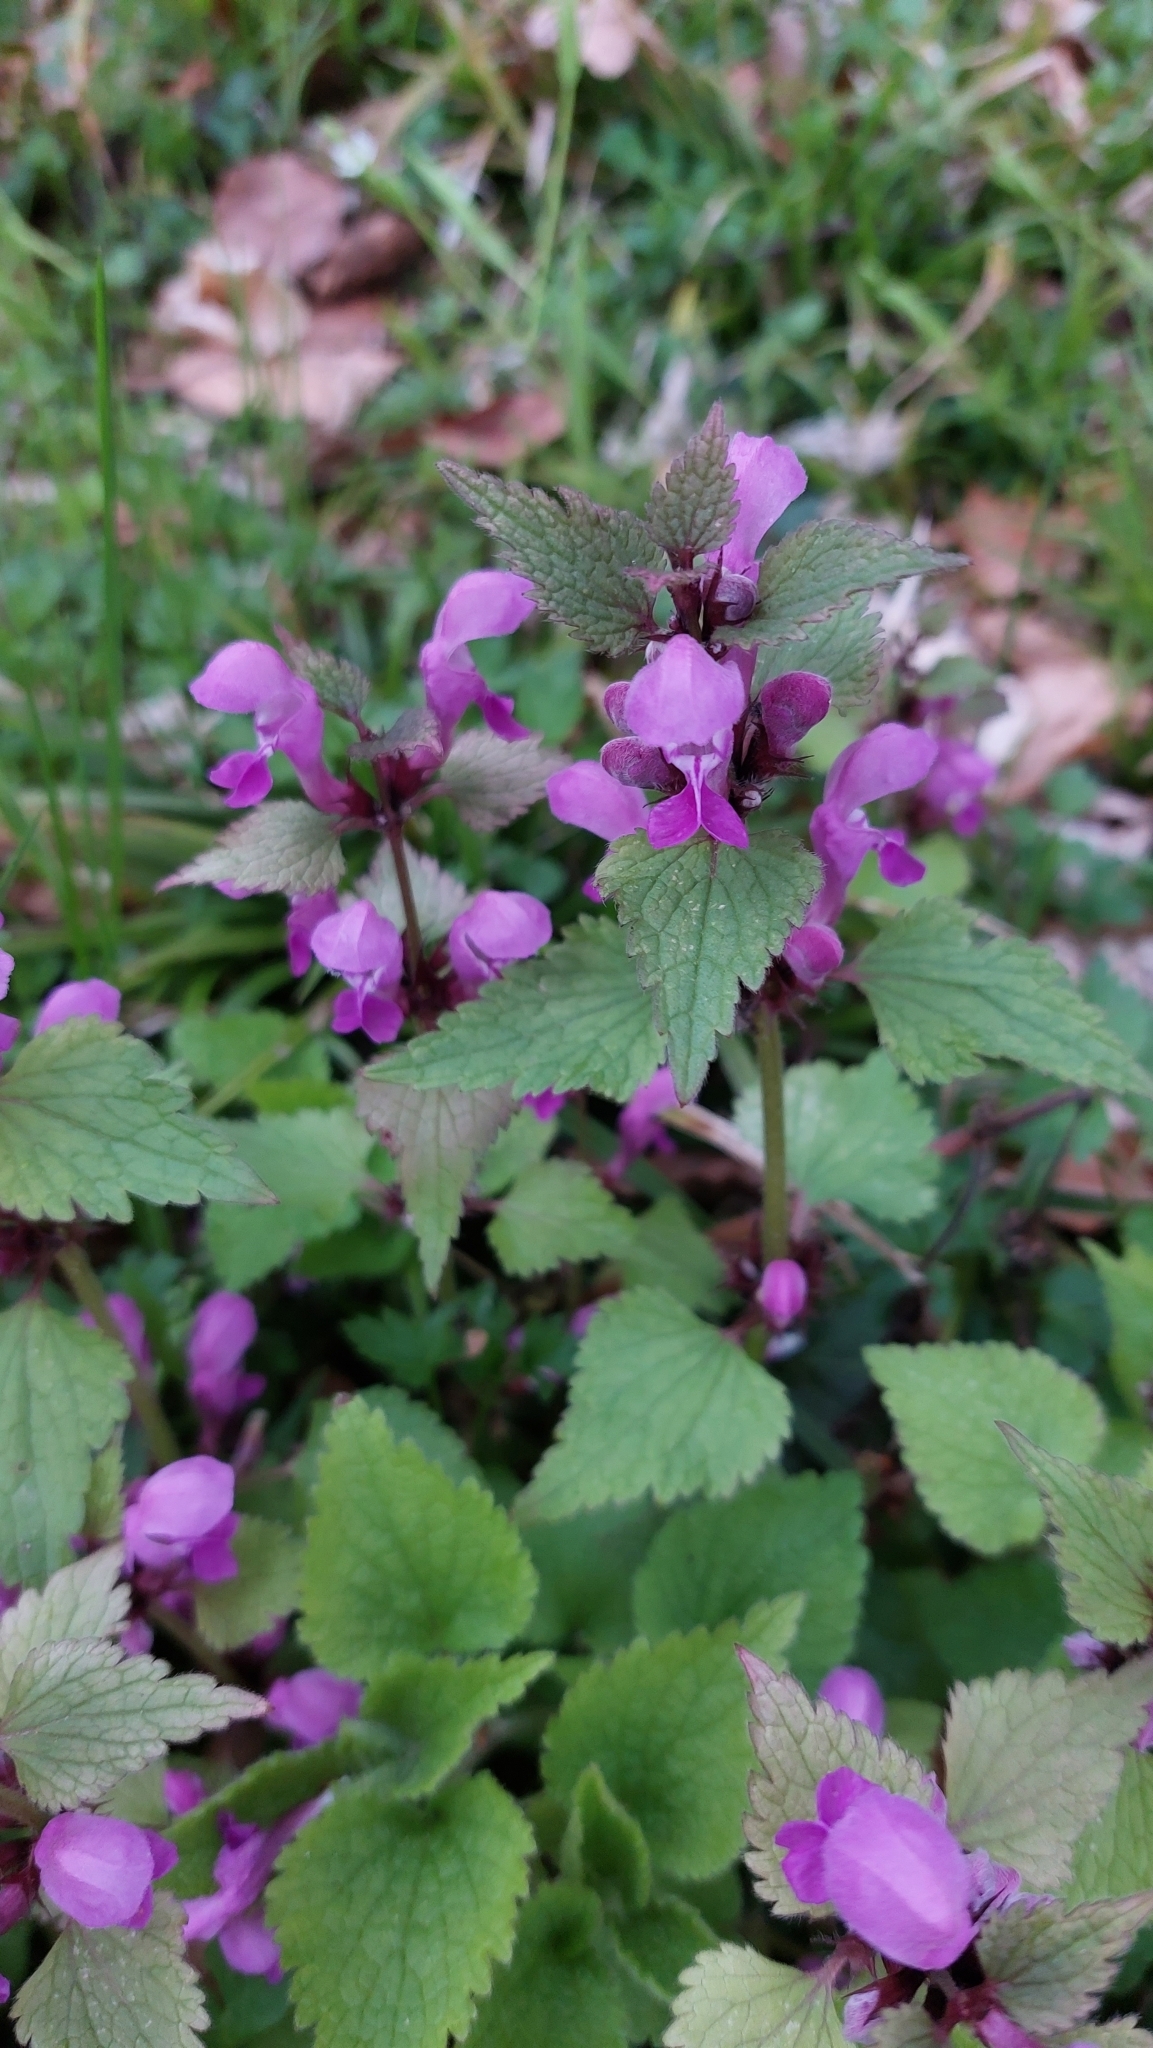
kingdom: Plantae
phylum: Tracheophyta
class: Magnoliopsida
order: Lamiales
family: Lamiaceae
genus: Lamium
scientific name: Lamium maculatum
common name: Spotted dead-nettle
